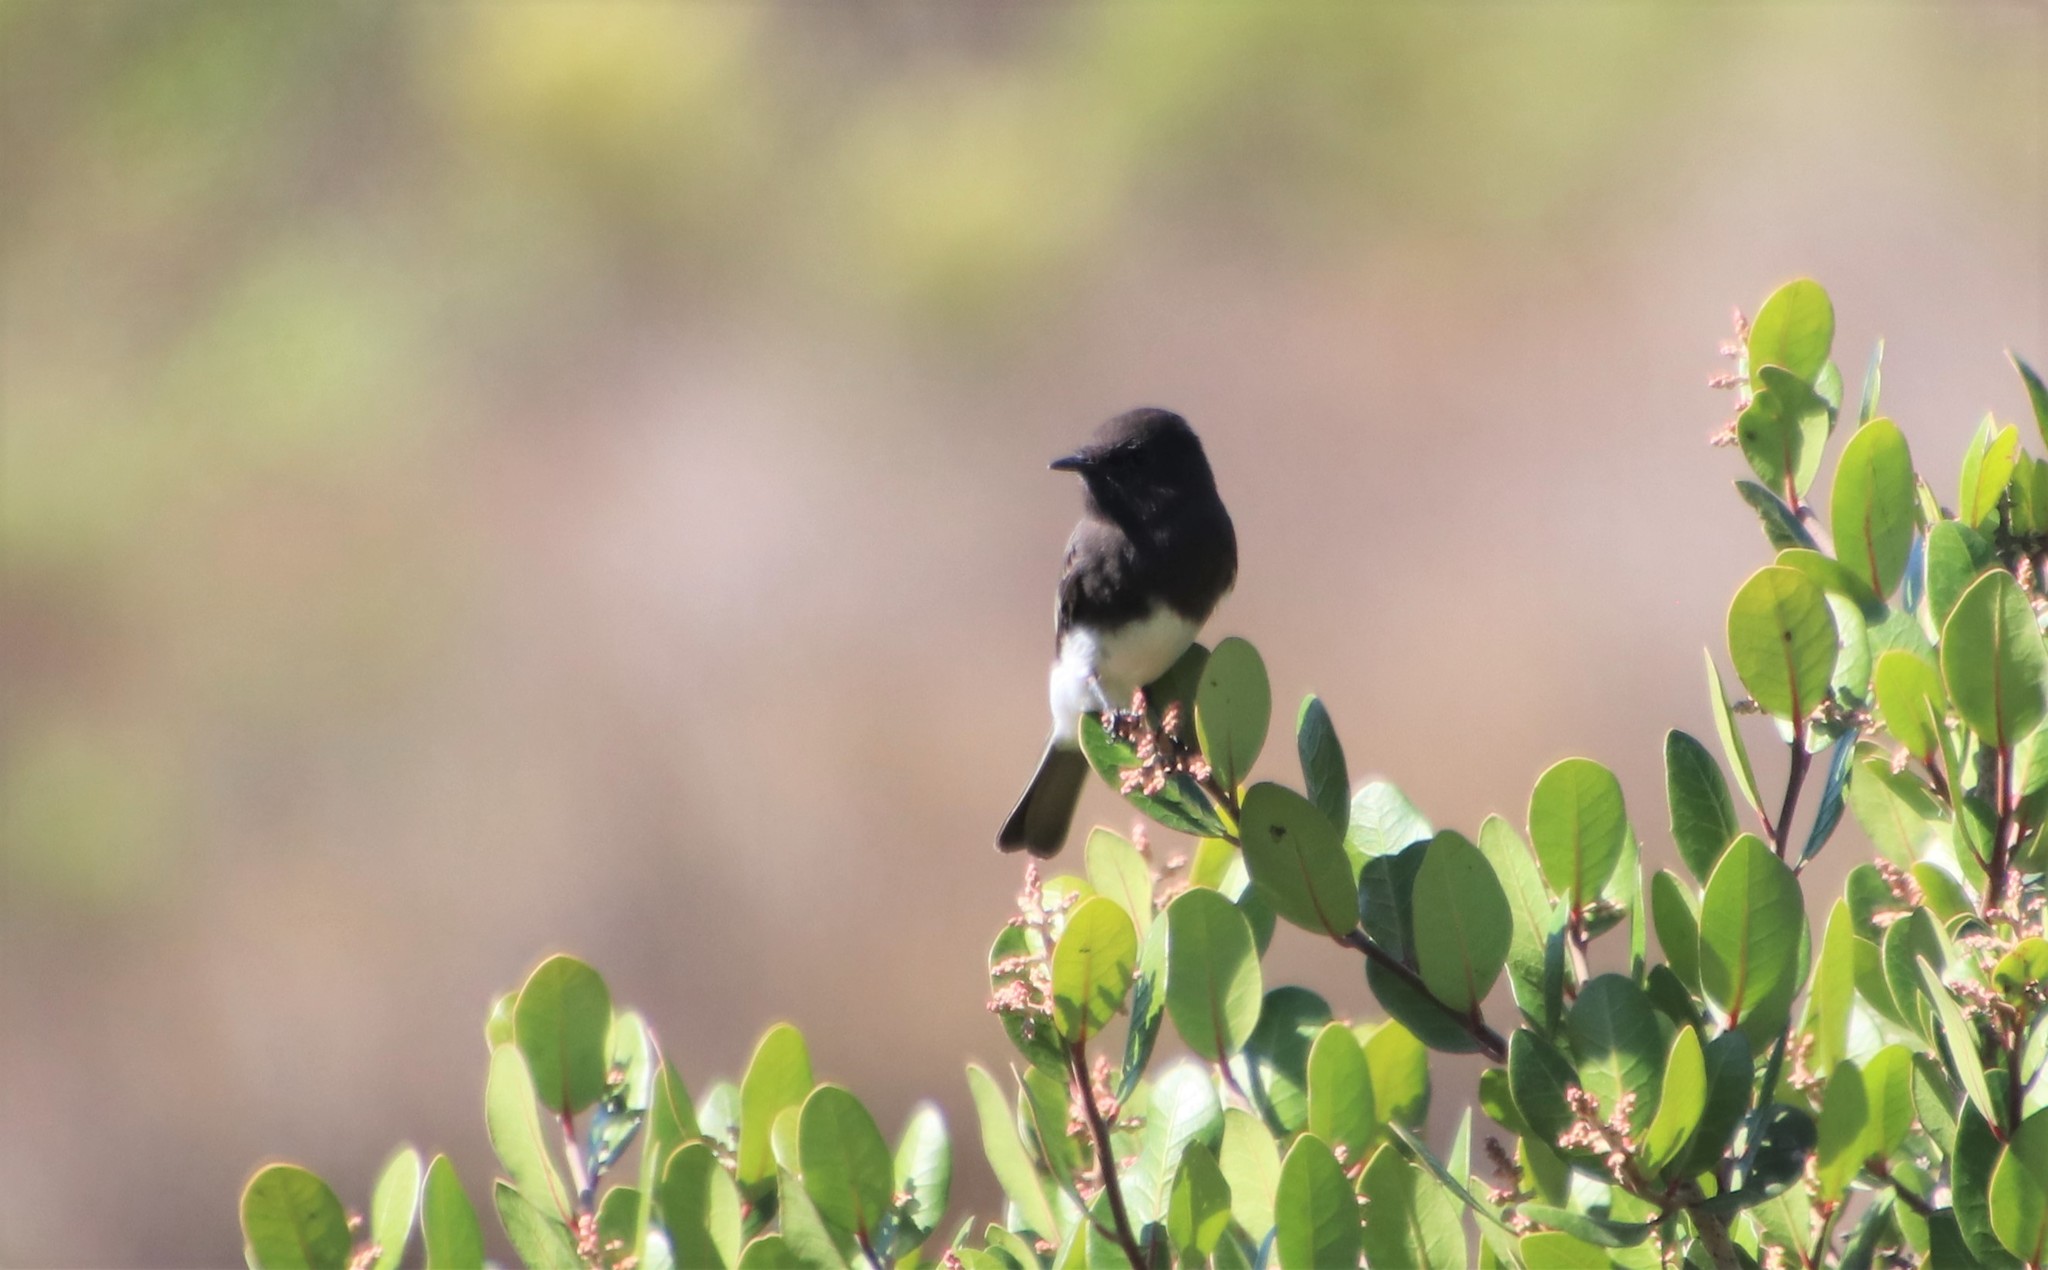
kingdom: Animalia
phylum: Chordata
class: Aves
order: Passeriformes
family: Tyrannidae
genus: Sayornis
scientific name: Sayornis nigricans
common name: Black phoebe
